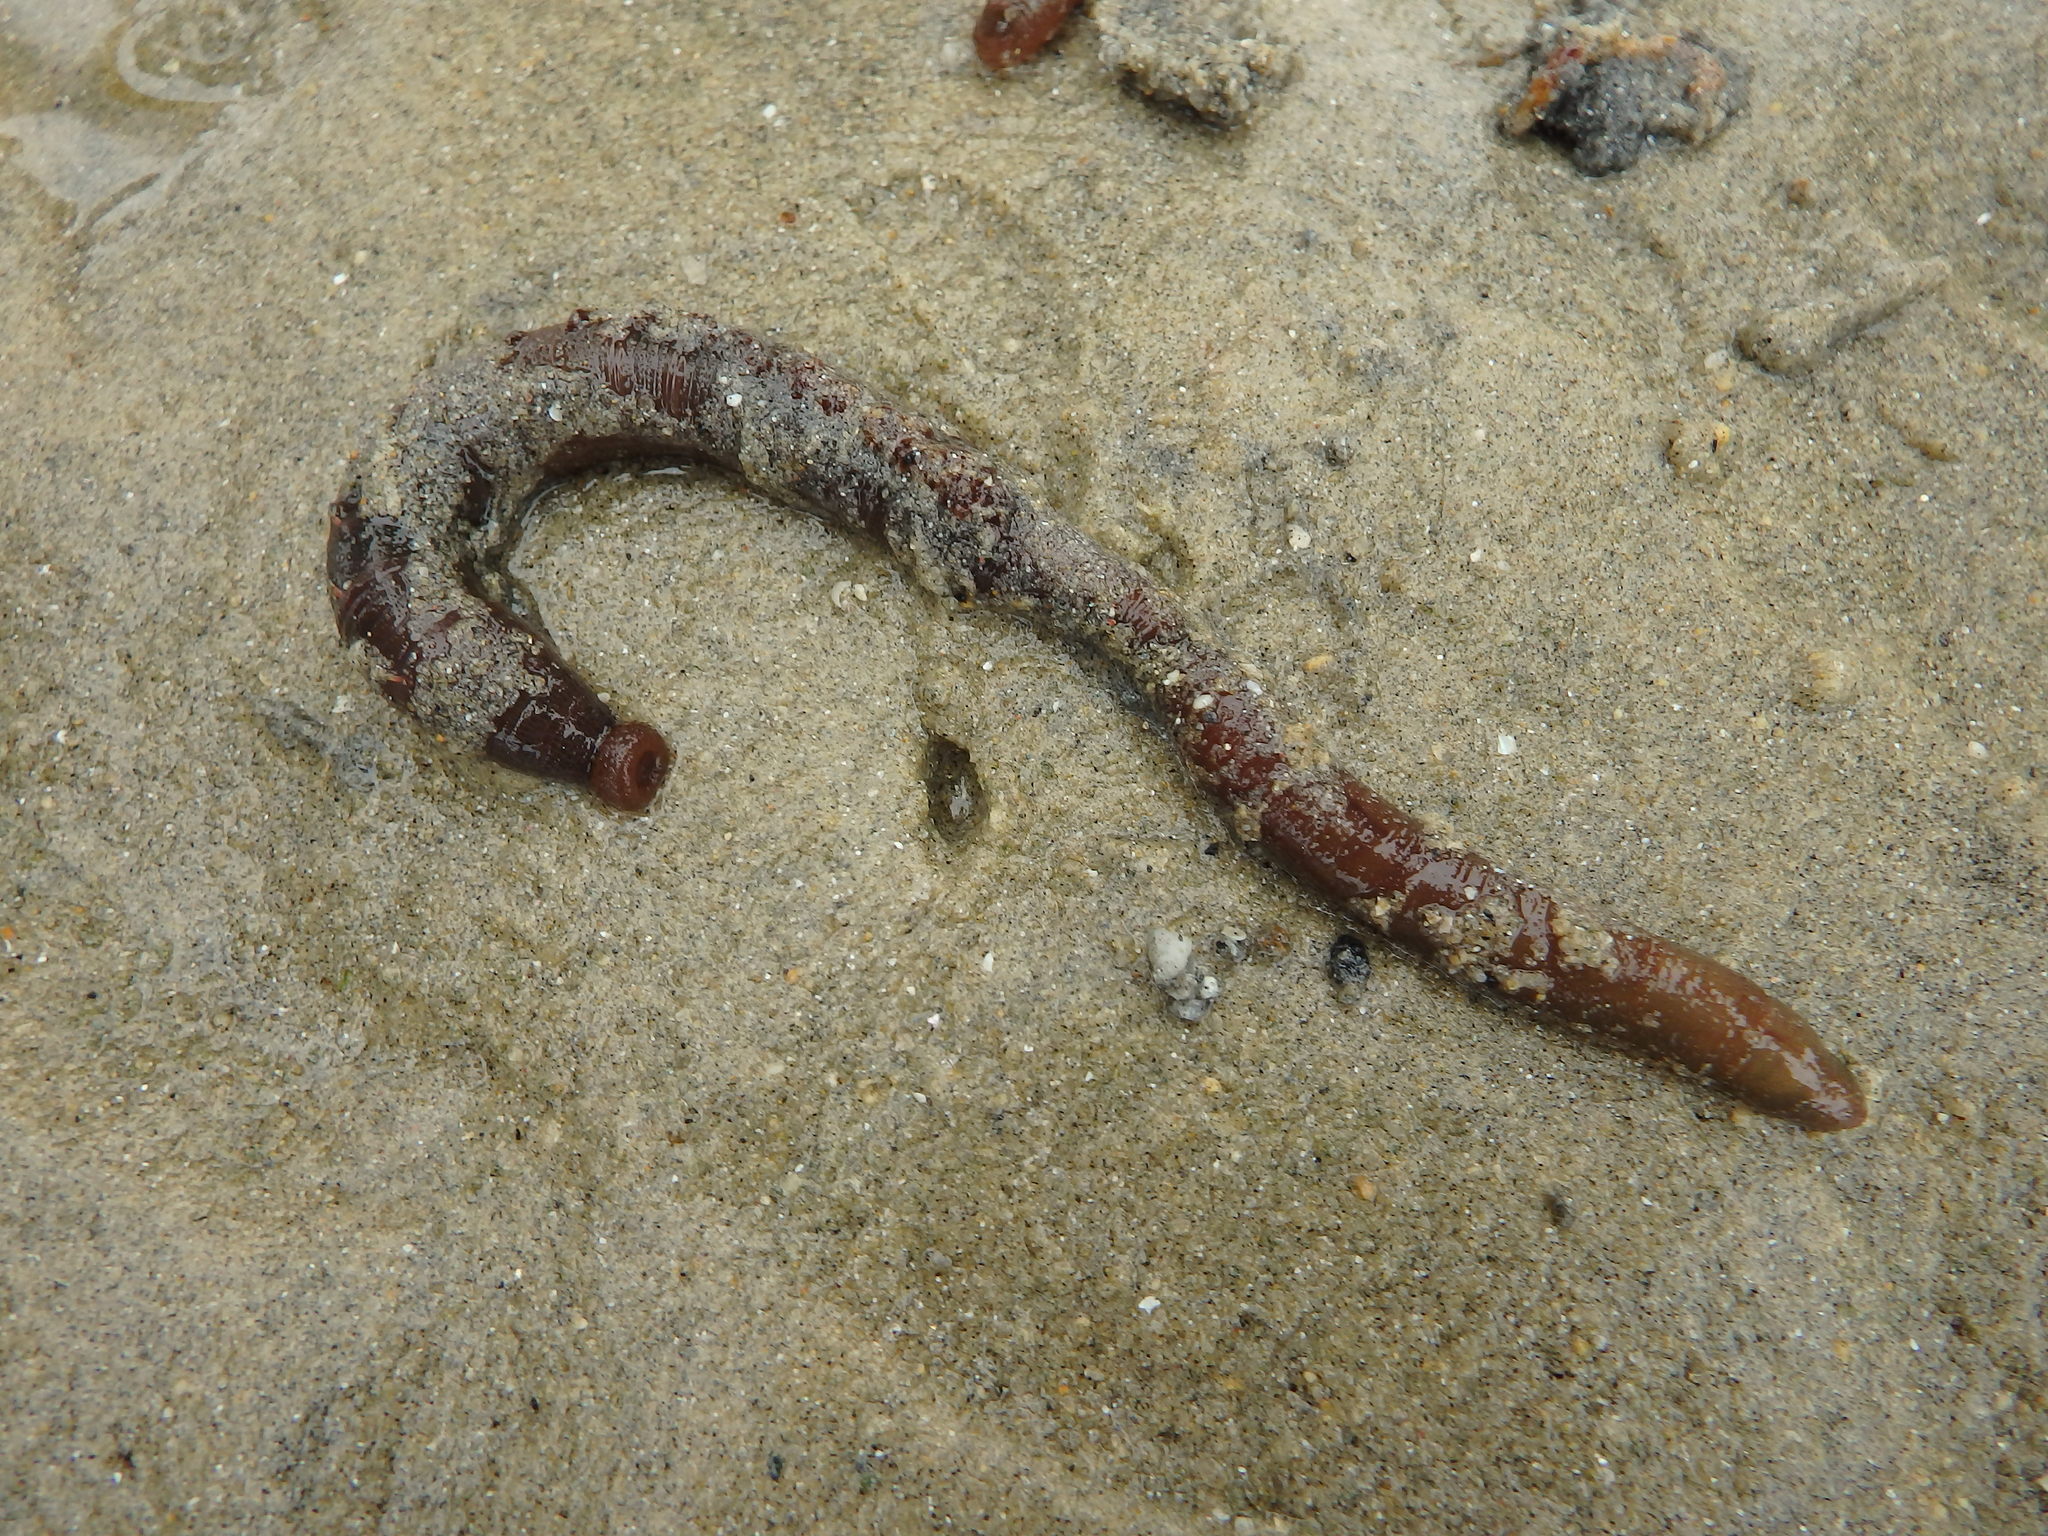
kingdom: Animalia
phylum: Annelida
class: Polychaeta
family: Arenicolidae
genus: Arenicola
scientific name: Arenicola marina
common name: Blow lugworm
